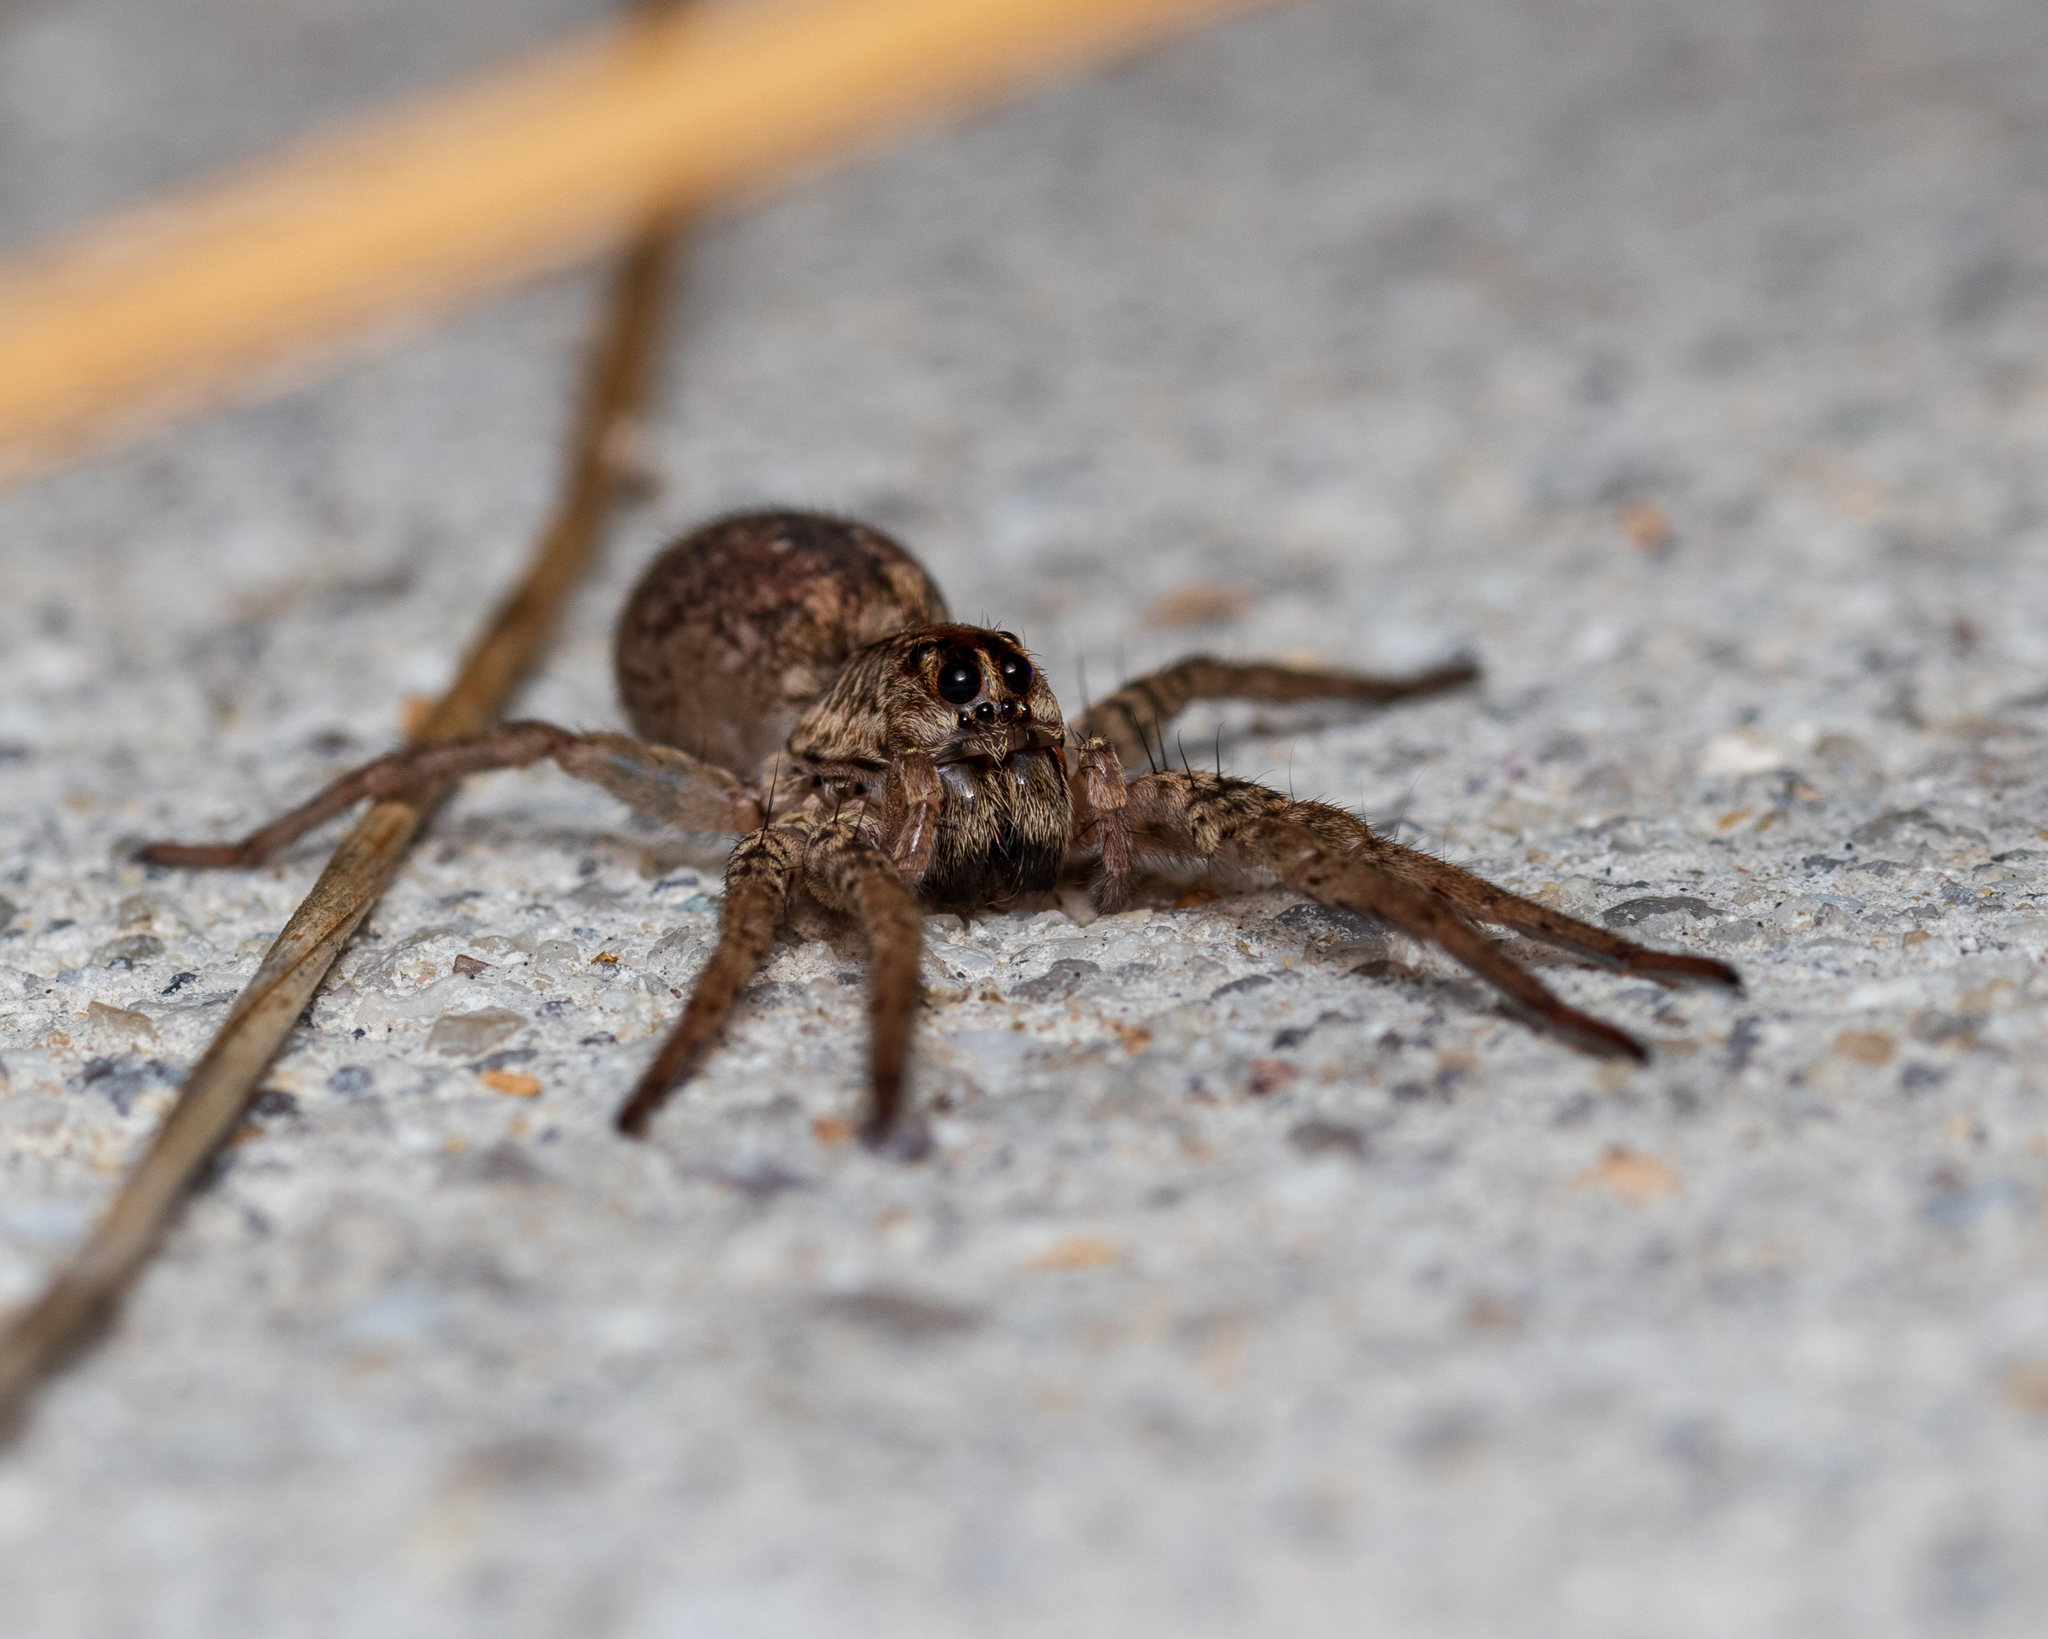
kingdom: Animalia
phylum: Arthropoda
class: Arachnida
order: Araneae
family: Lycosidae
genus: Hogna
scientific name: Hogna antelucana
